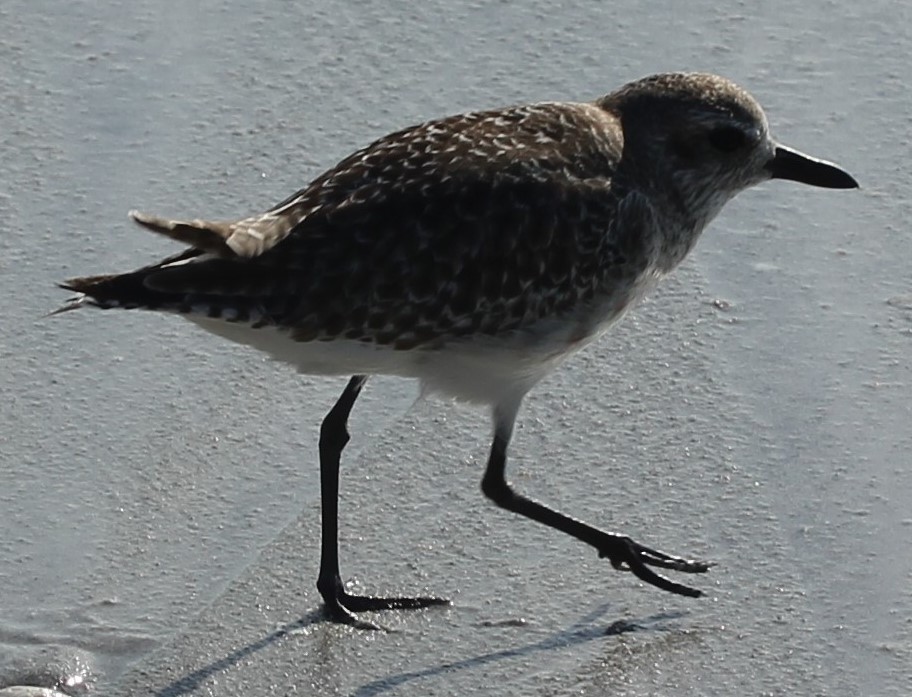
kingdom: Animalia
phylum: Chordata
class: Aves
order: Charadriiformes
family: Charadriidae
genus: Pluvialis
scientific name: Pluvialis squatarola
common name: Grey plover
